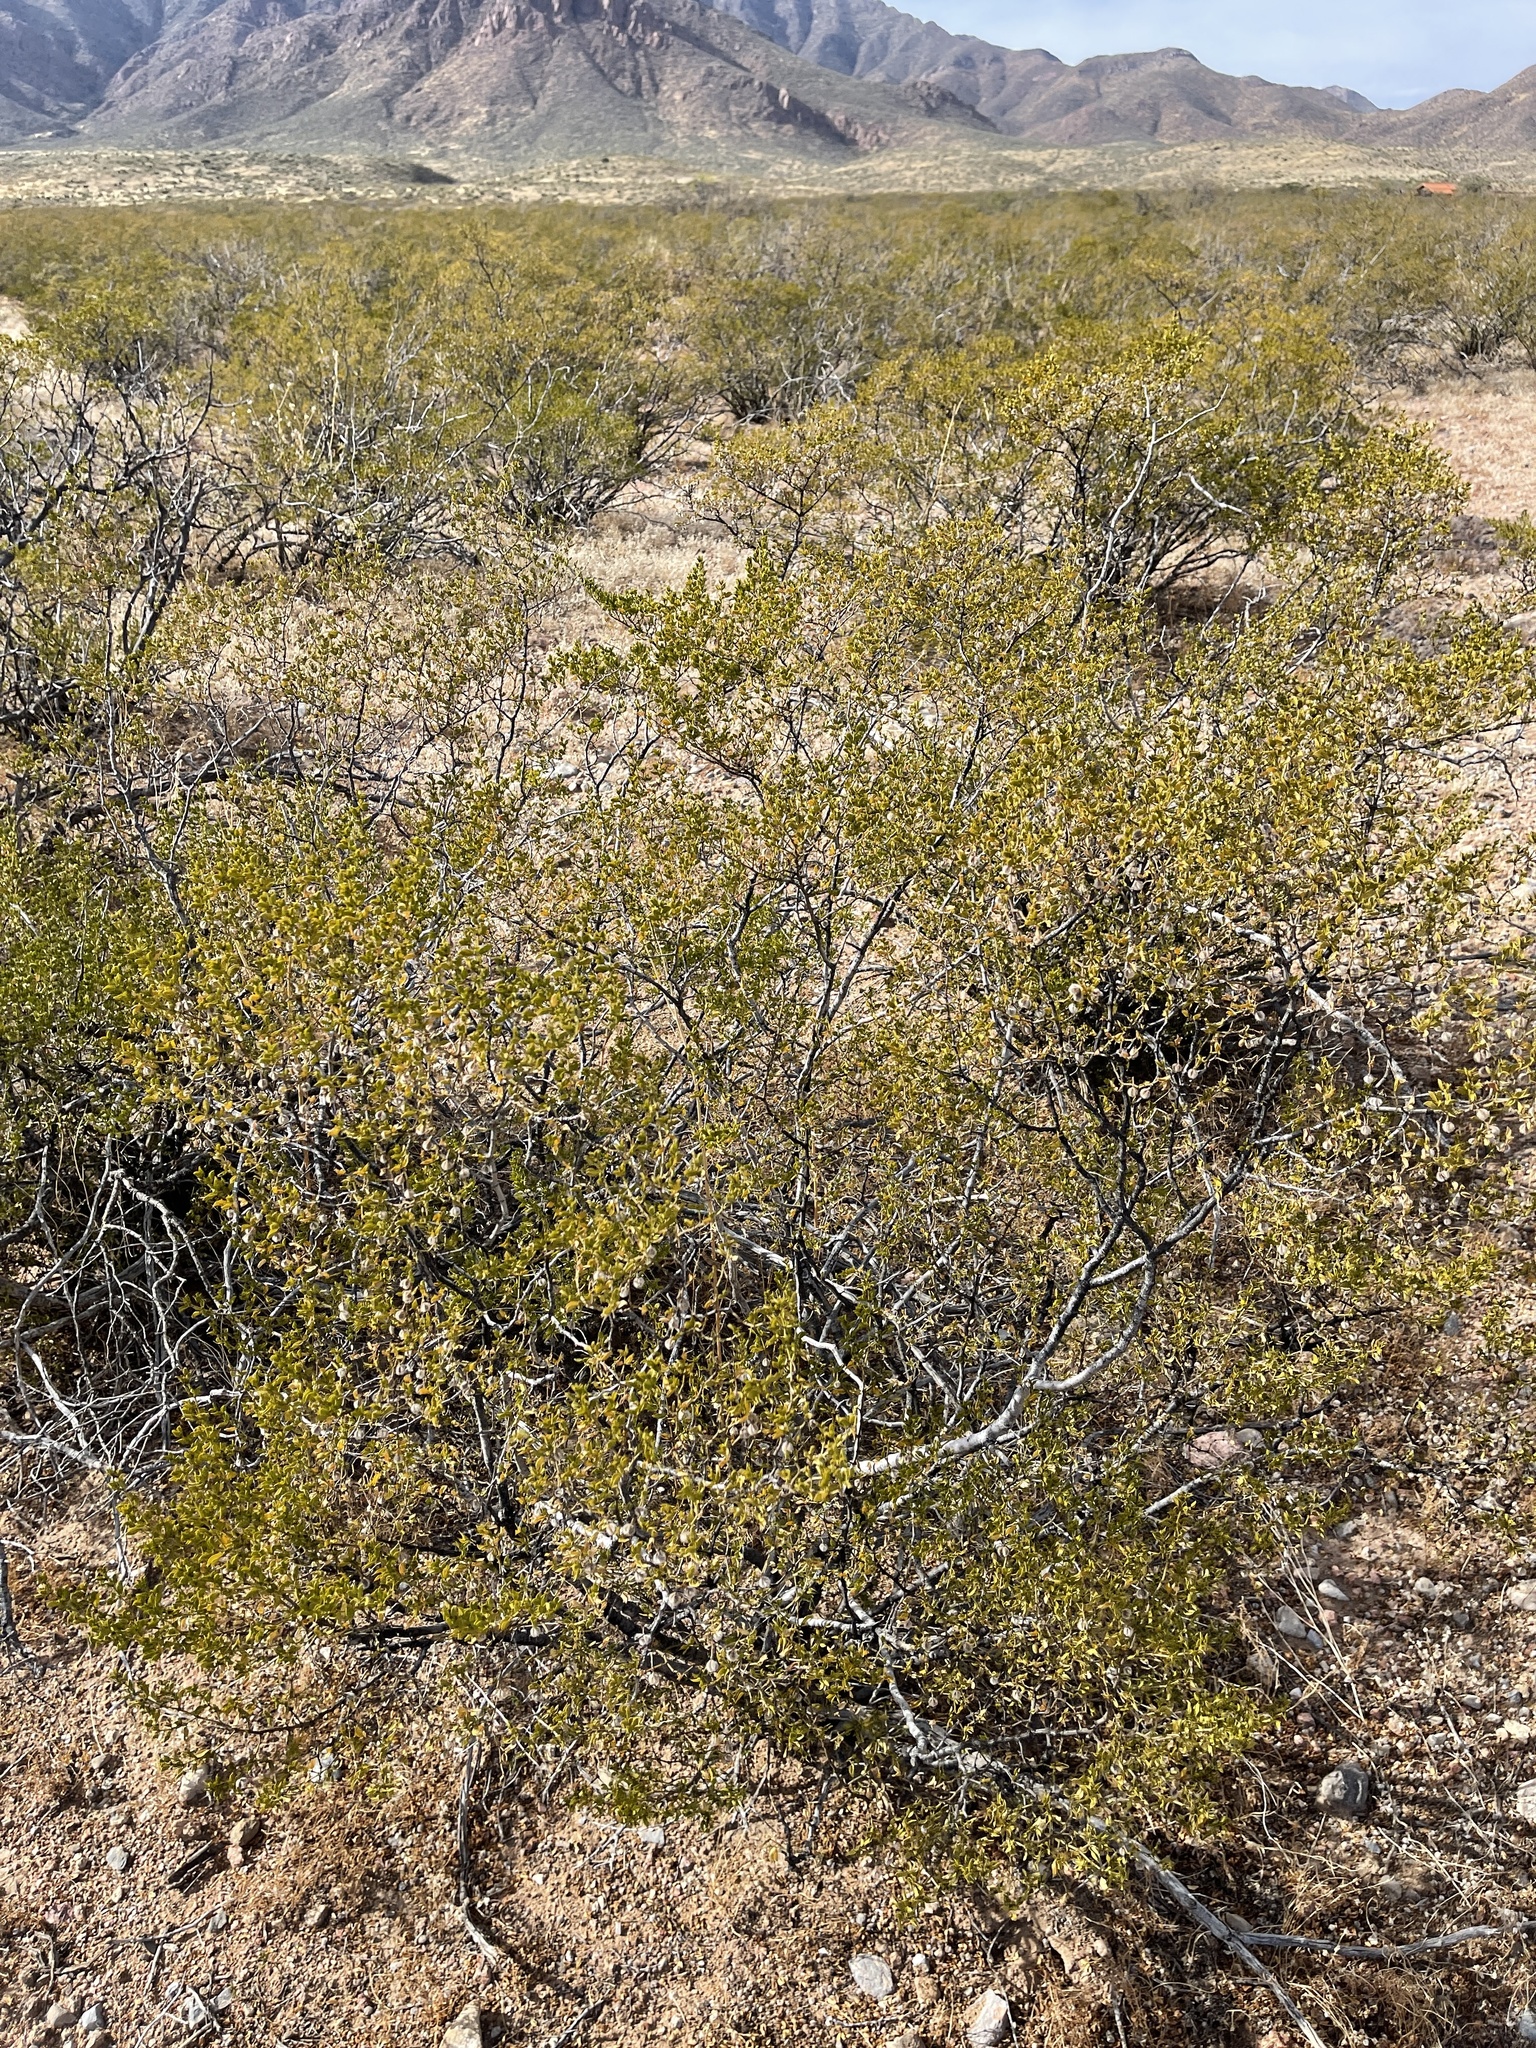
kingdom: Plantae
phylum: Tracheophyta
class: Magnoliopsida
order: Zygophyllales
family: Zygophyllaceae
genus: Larrea
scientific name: Larrea tridentata
